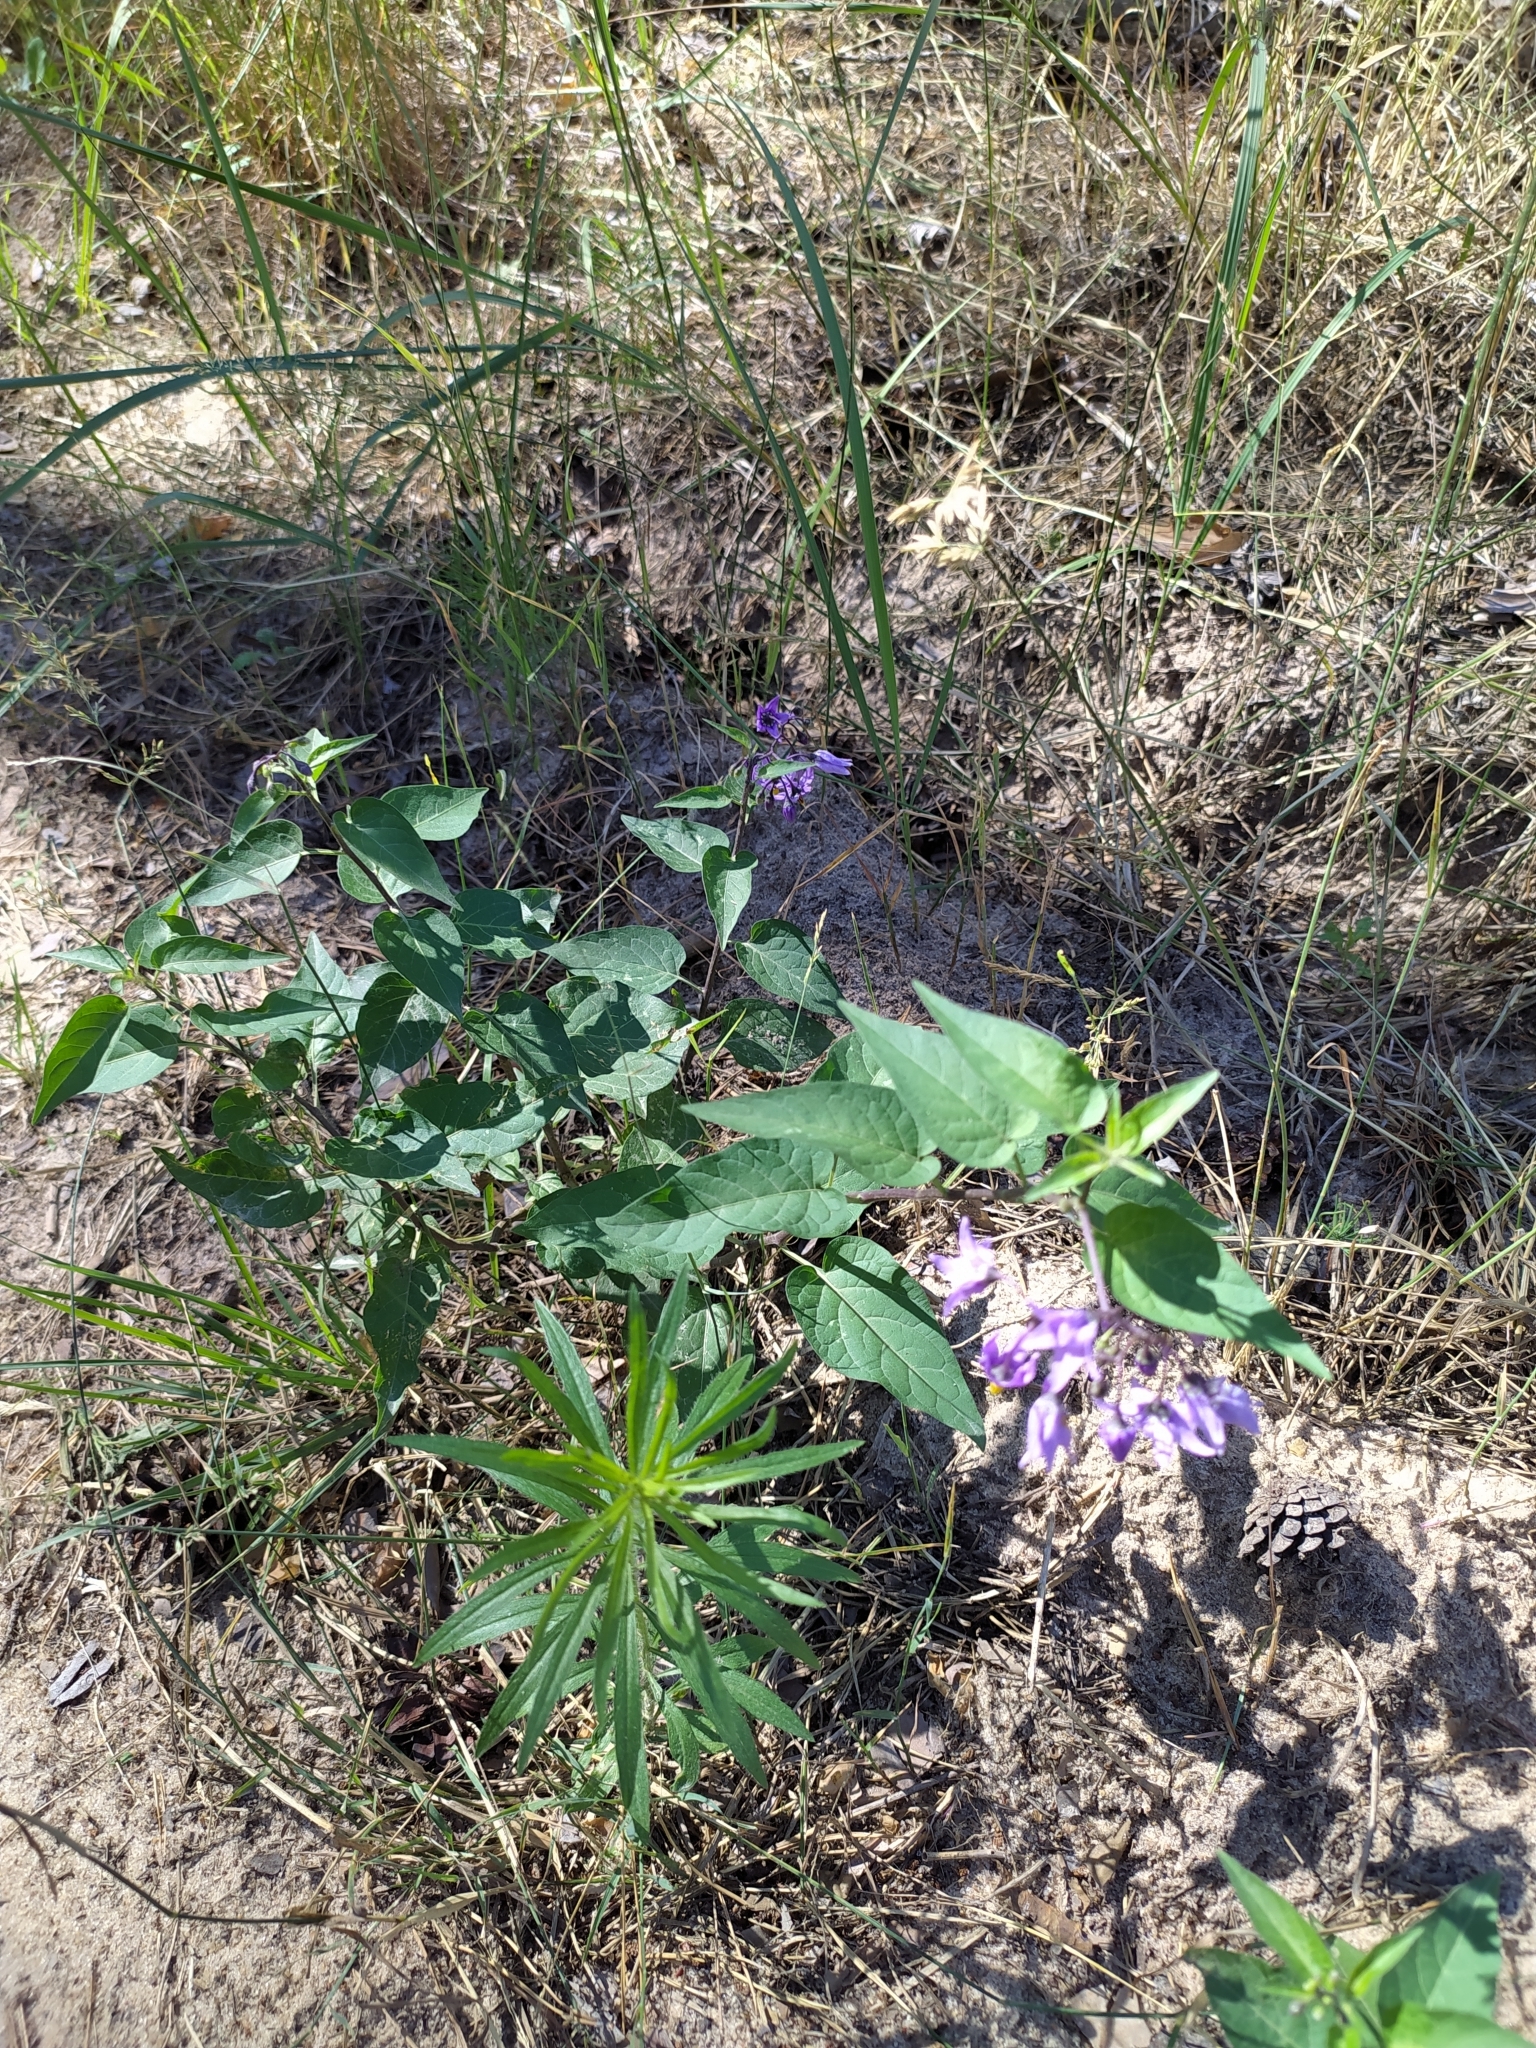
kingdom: Plantae
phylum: Tracheophyta
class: Magnoliopsida
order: Solanales
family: Solanaceae
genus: Solanum
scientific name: Solanum dulcamara
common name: Climbing nightshade
